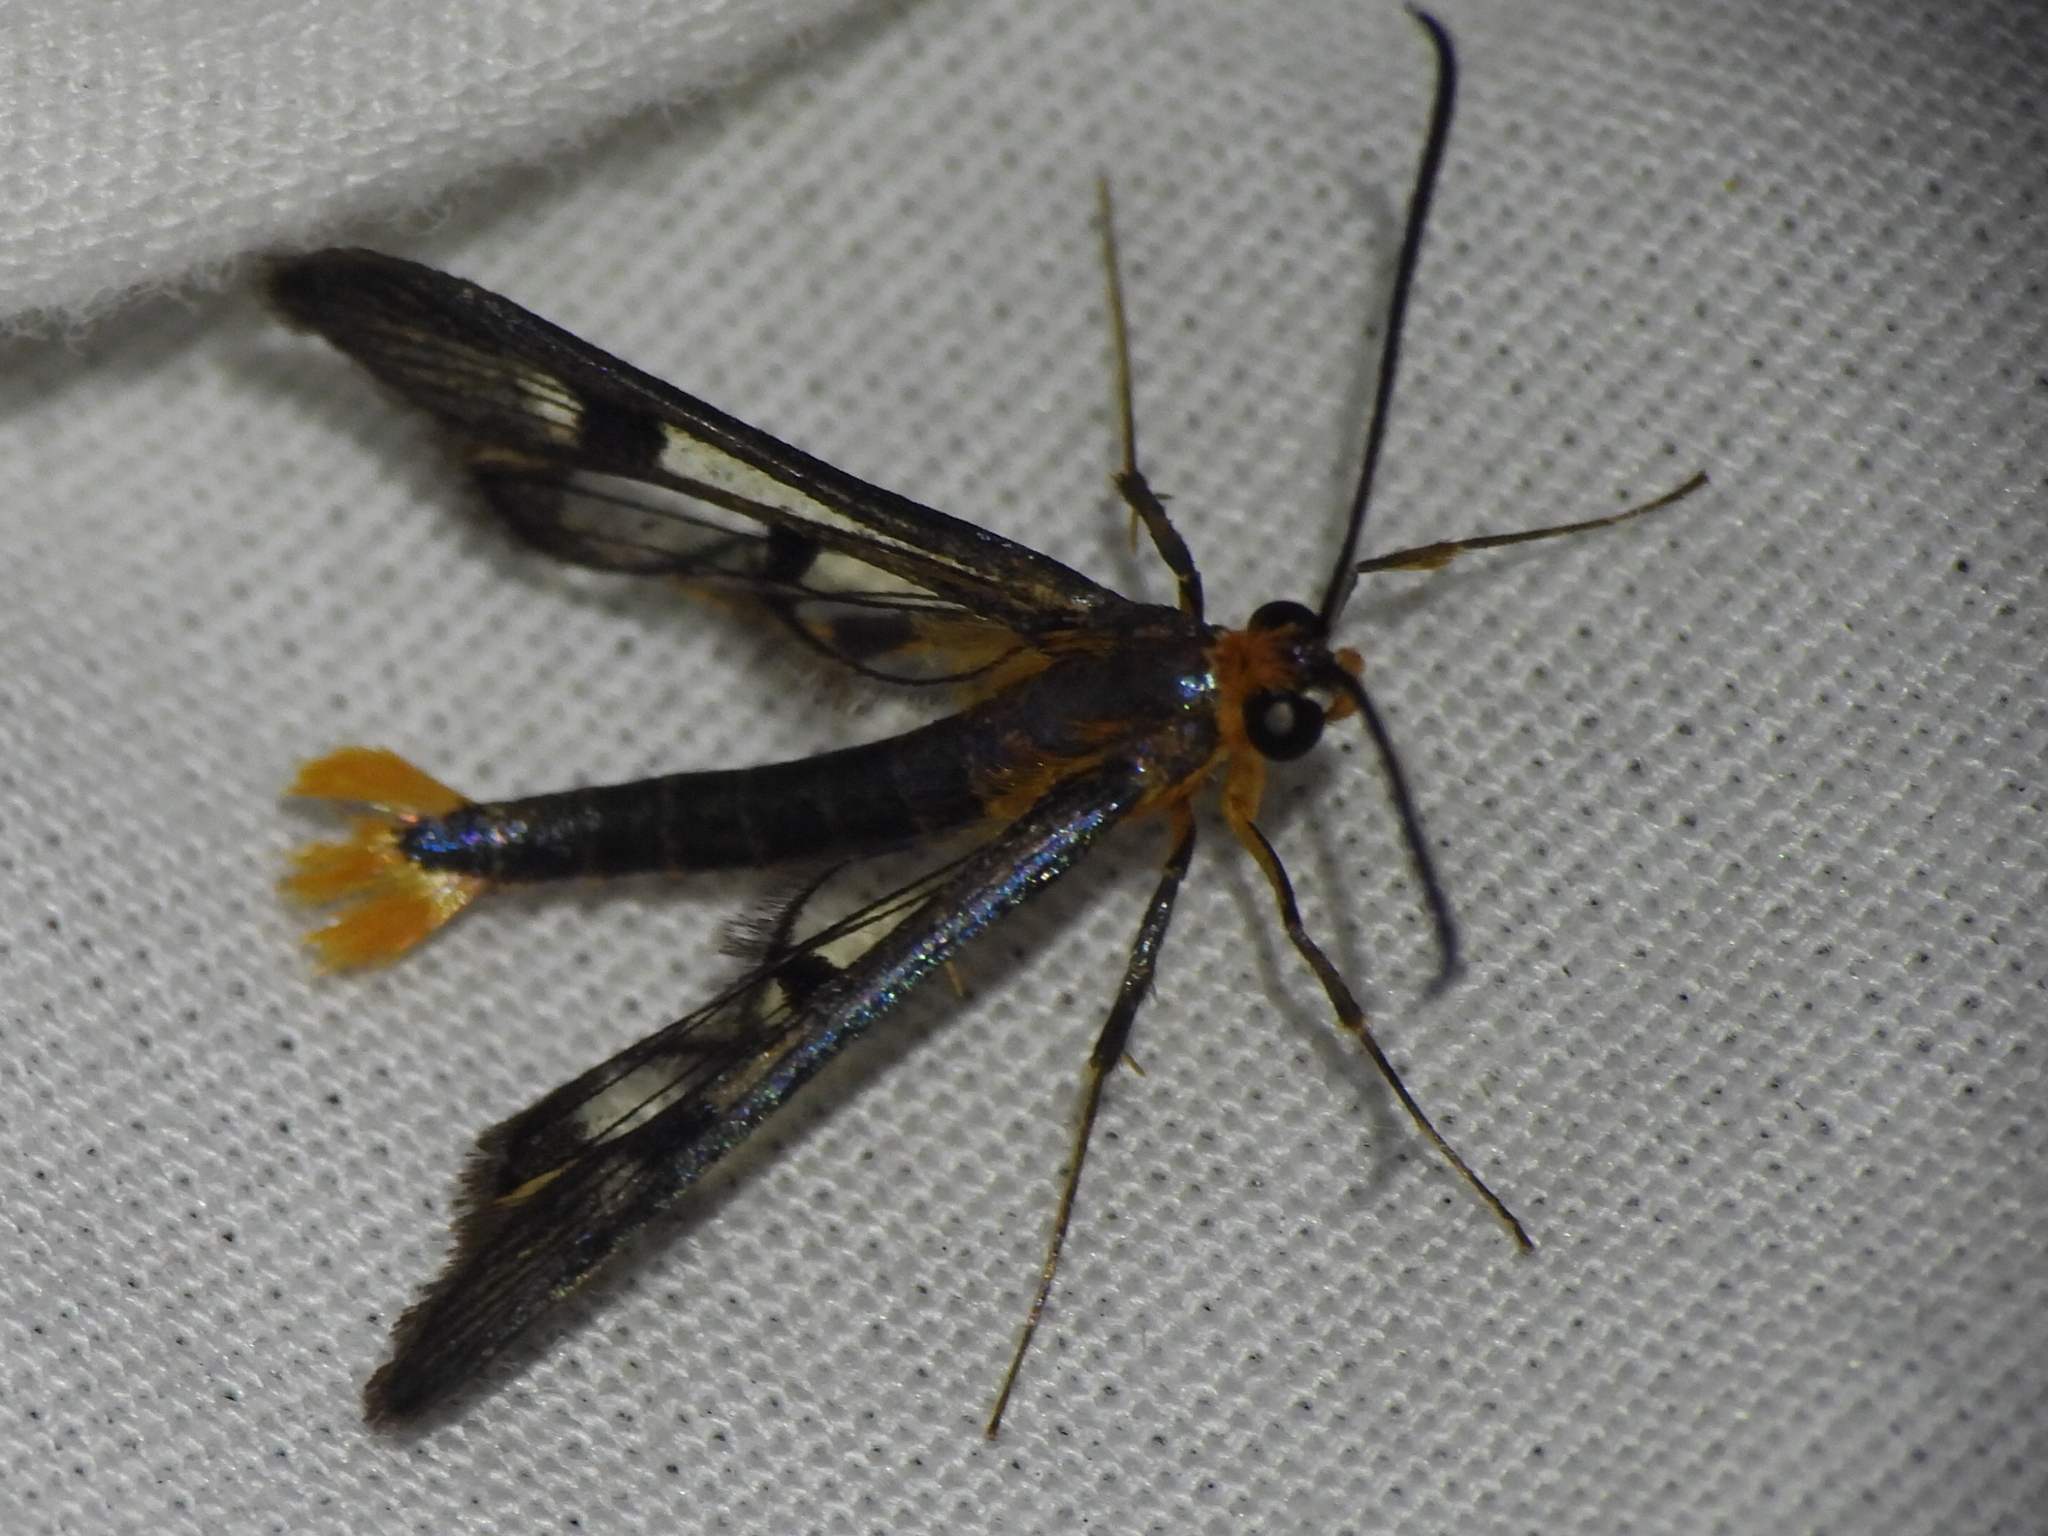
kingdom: Animalia
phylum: Arthropoda
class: Insecta
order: Lepidoptera
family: Sesiidae
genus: Synanthedon
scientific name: Synanthedon acerni
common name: Maple callus borer moth
